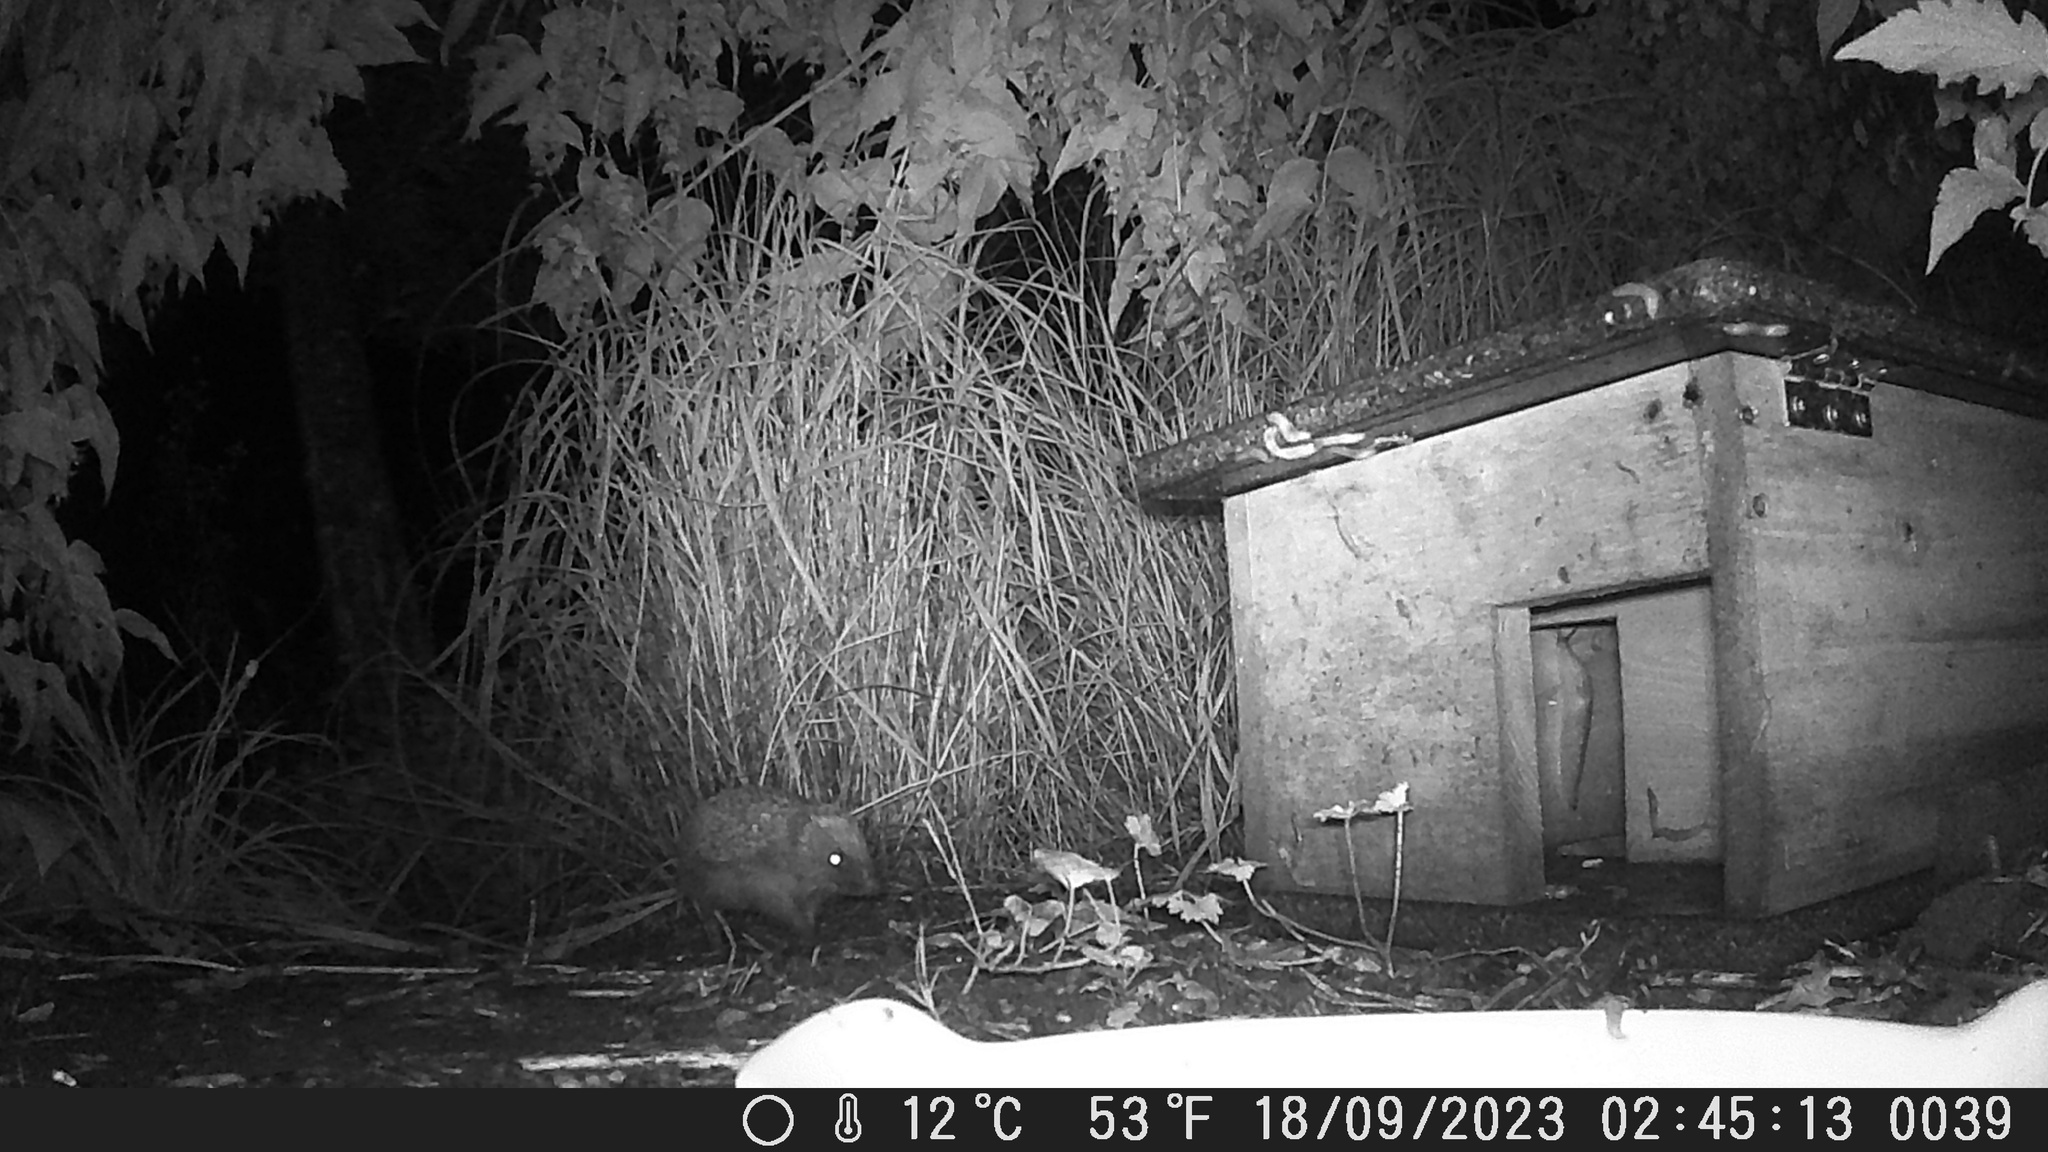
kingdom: Animalia
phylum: Chordata
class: Mammalia
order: Erinaceomorpha
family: Erinaceidae
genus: Erinaceus
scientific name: Erinaceus europaeus
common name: West european hedgehog
